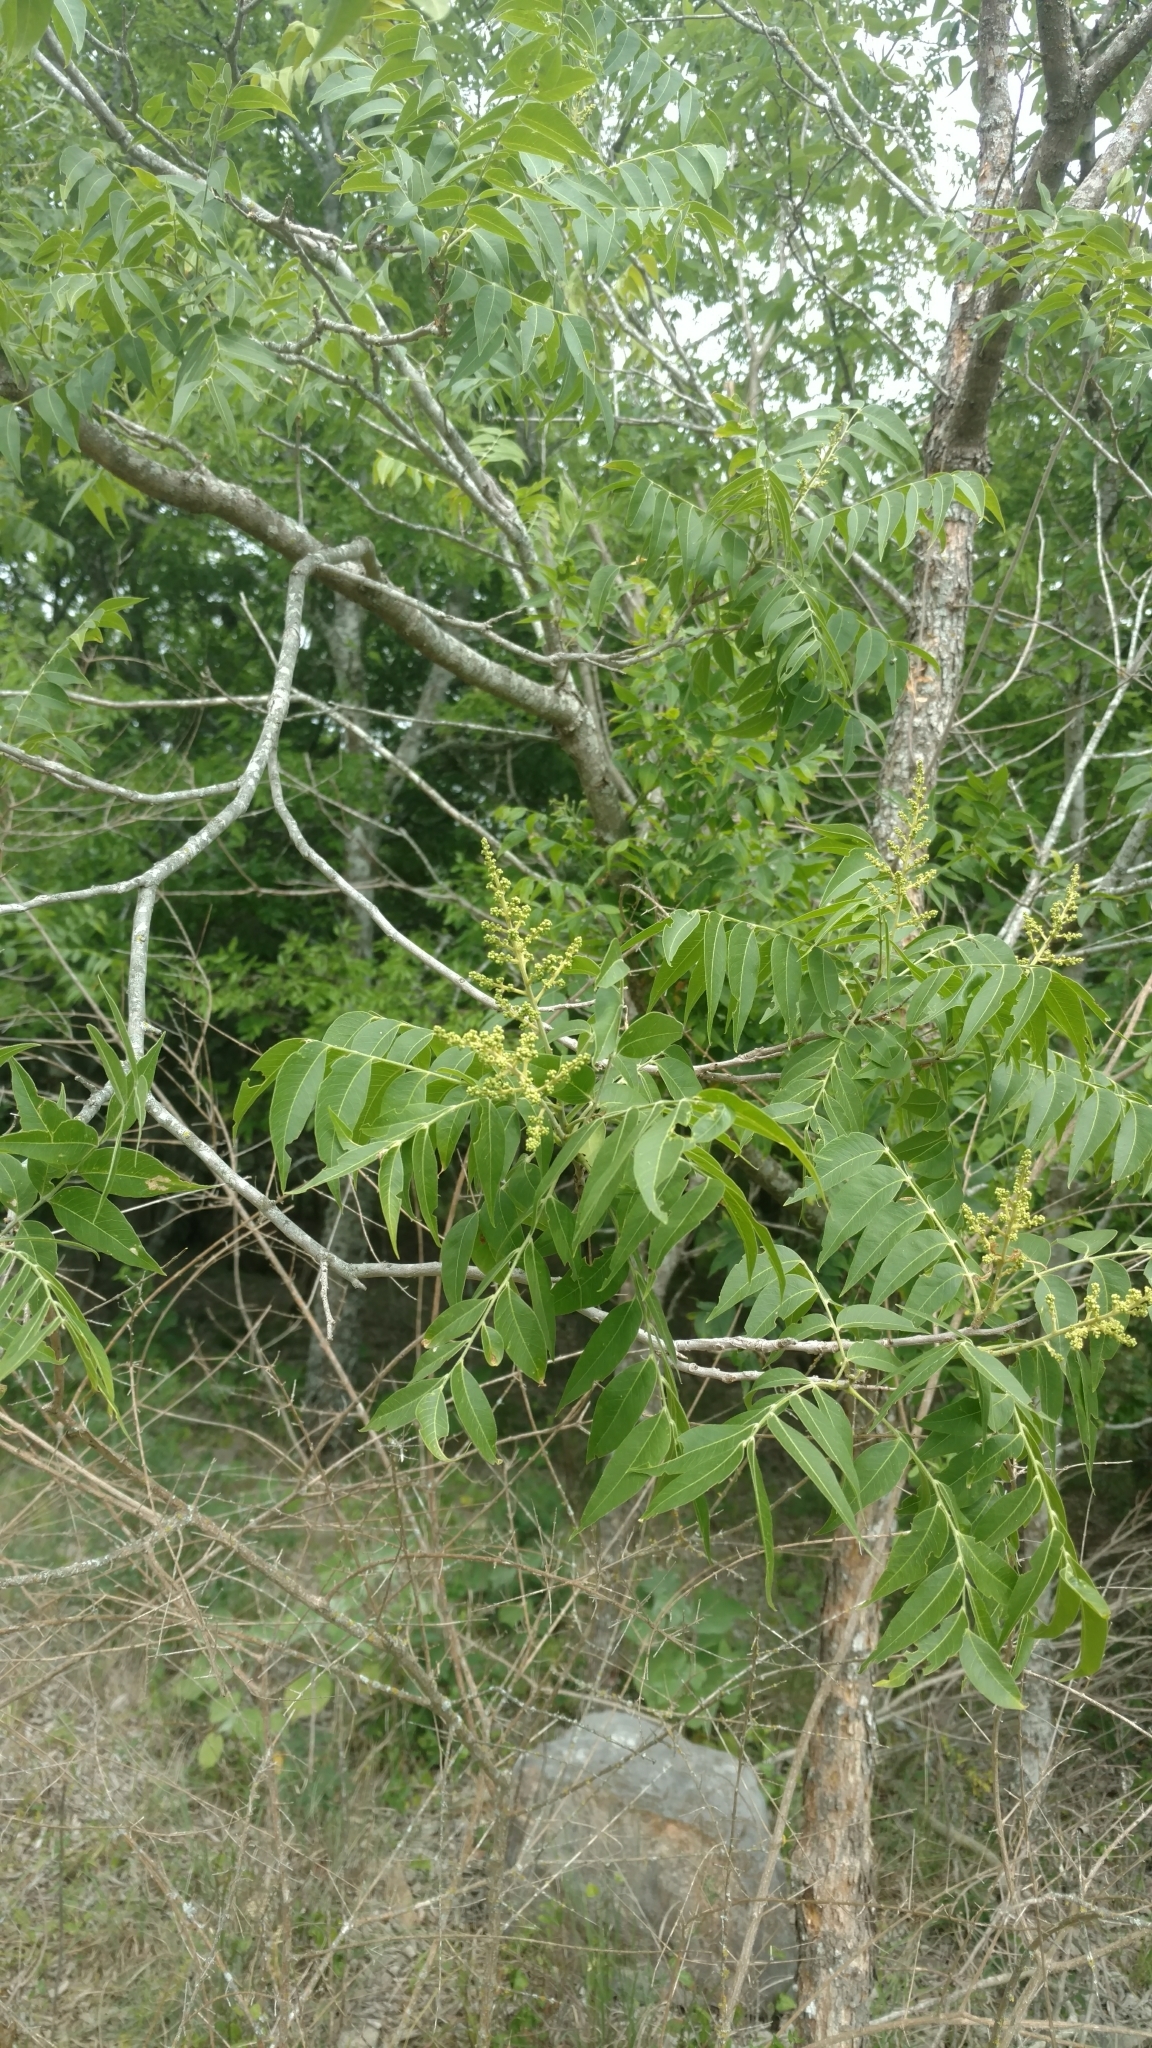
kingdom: Plantae
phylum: Tracheophyta
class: Magnoliopsida
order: Sapindales
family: Sapindaceae
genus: Sapindus
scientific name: Sapindus drummondii
